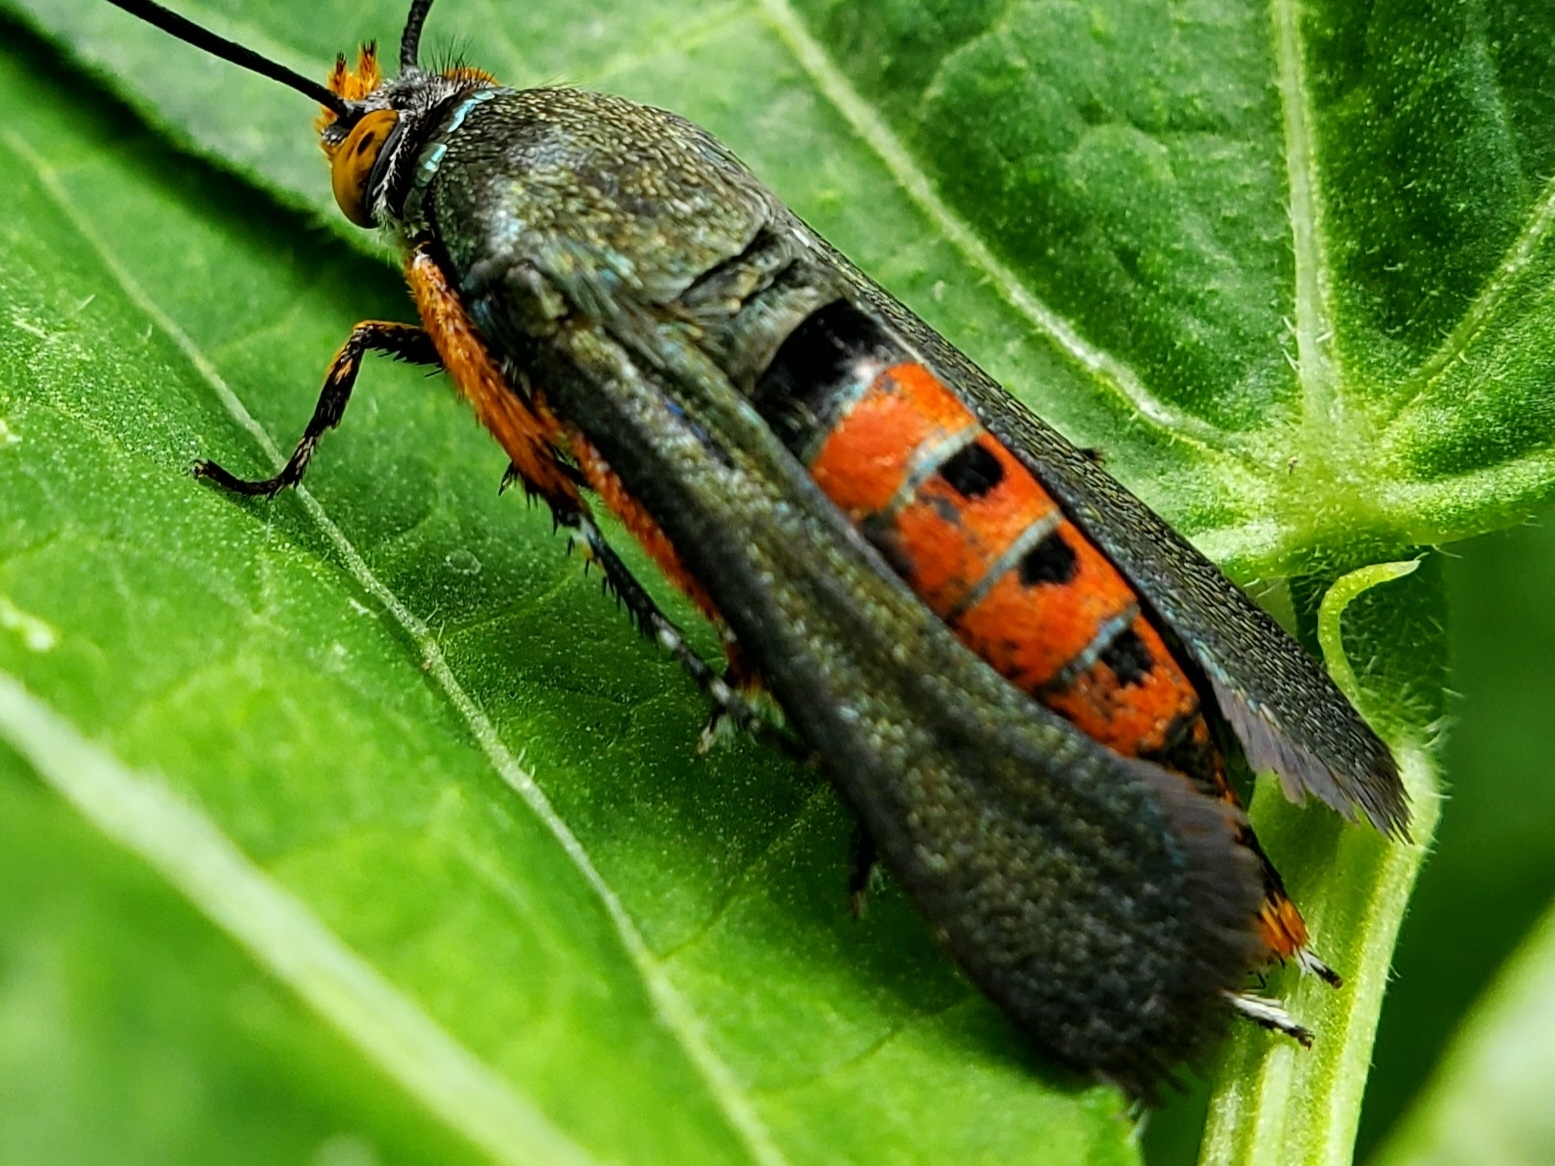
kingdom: Animalia
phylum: Arthropoda
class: Insecta
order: Lepidoptera
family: Sesiidae
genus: Eichlinia
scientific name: Eichlinia cucurbitae
